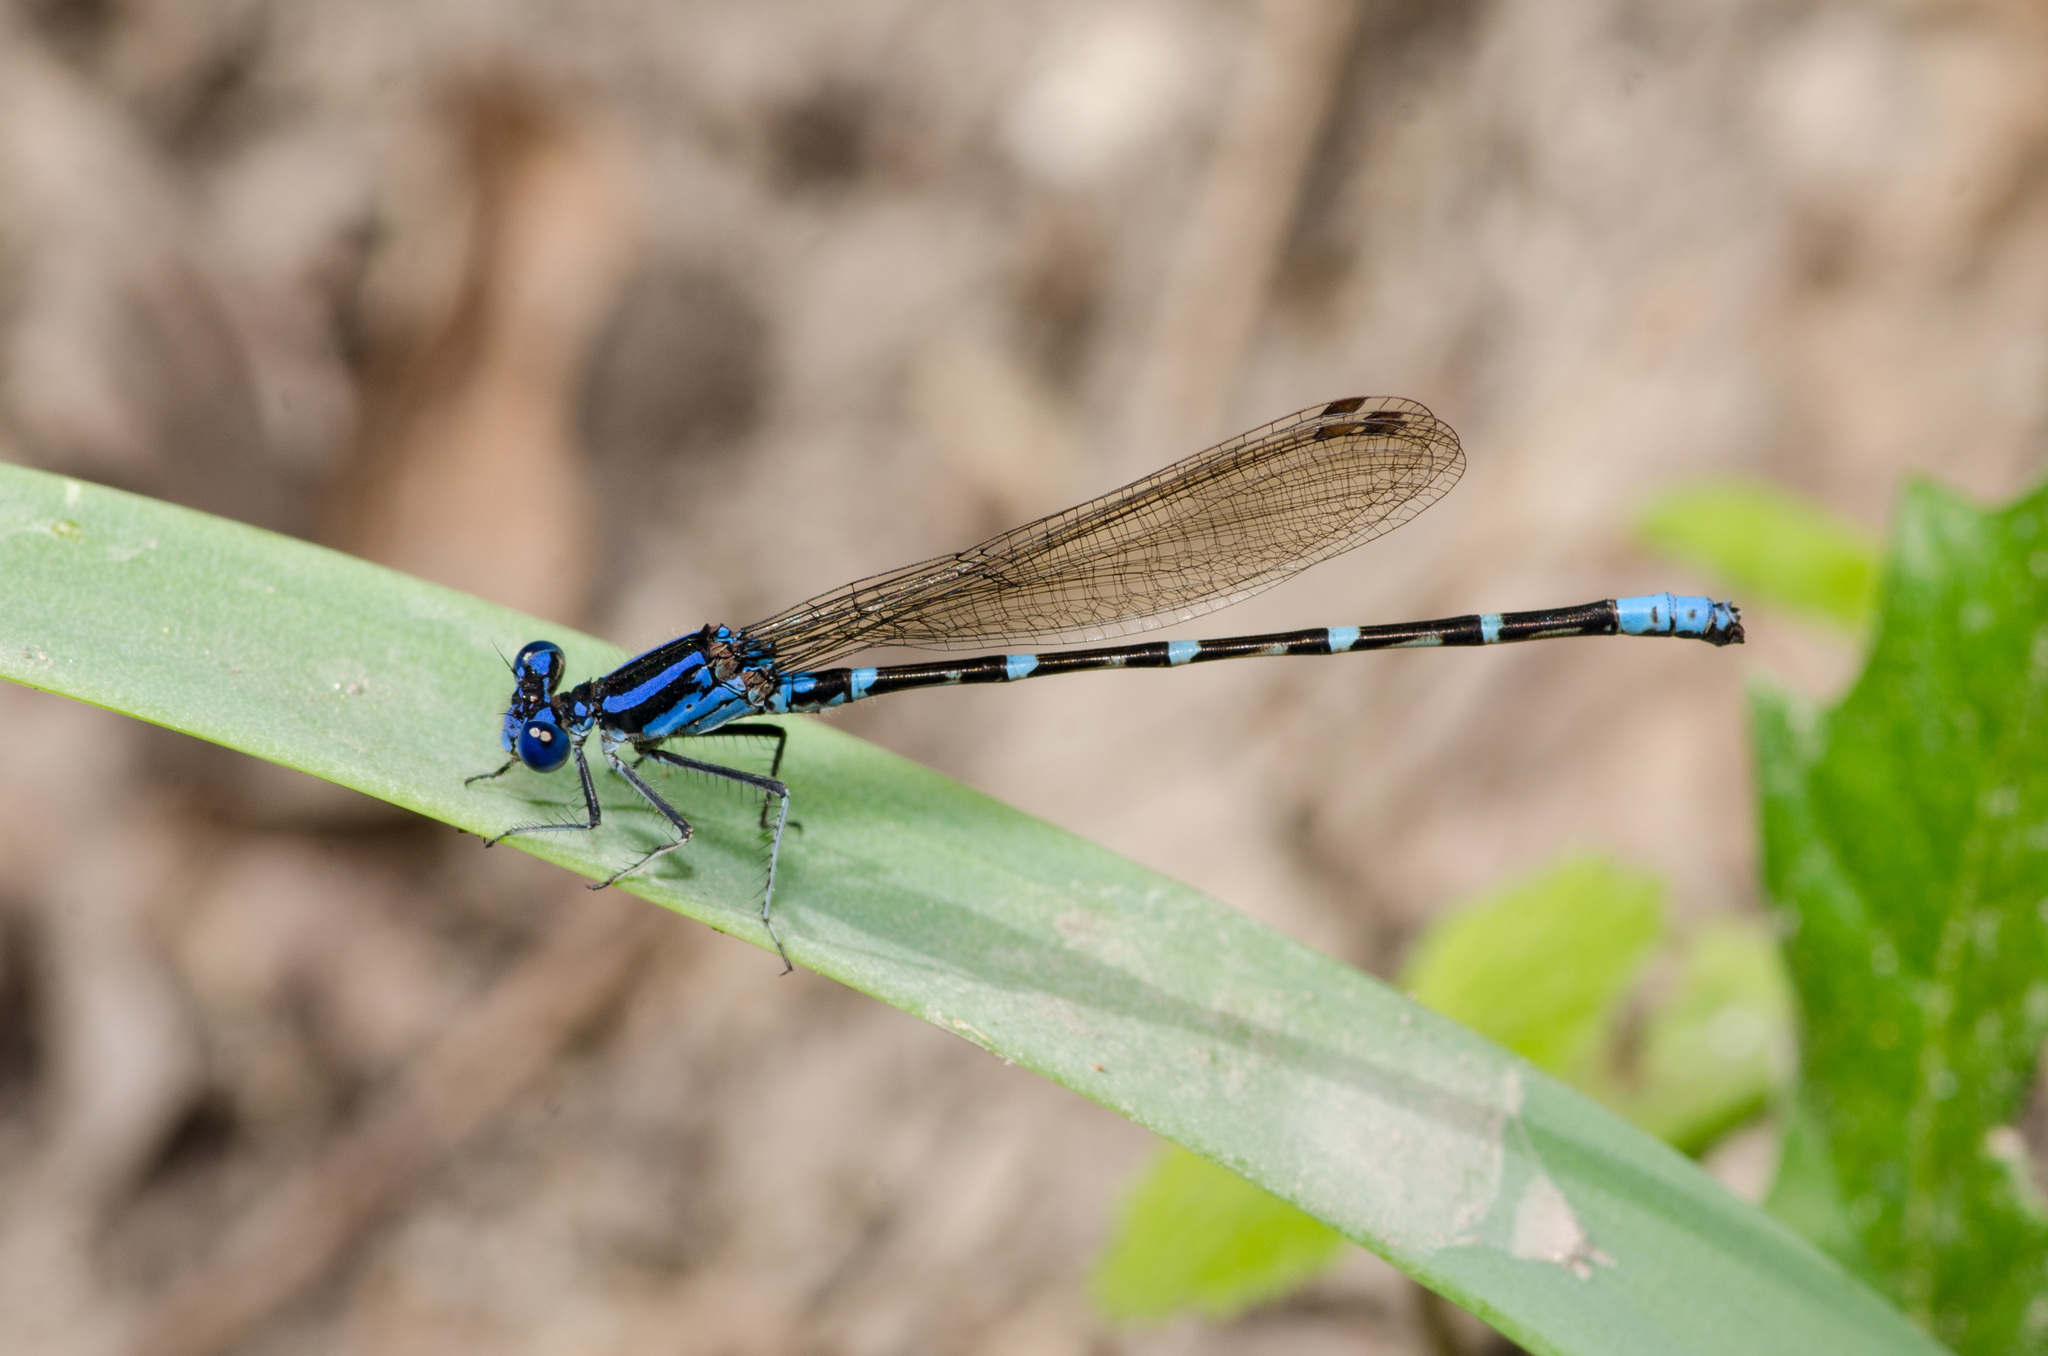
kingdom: Animalia
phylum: Arthropoda
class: Insecta
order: Odonata
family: Coenagrionidae
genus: Argia
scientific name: Argia sedula
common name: Blue-ringed dancer
